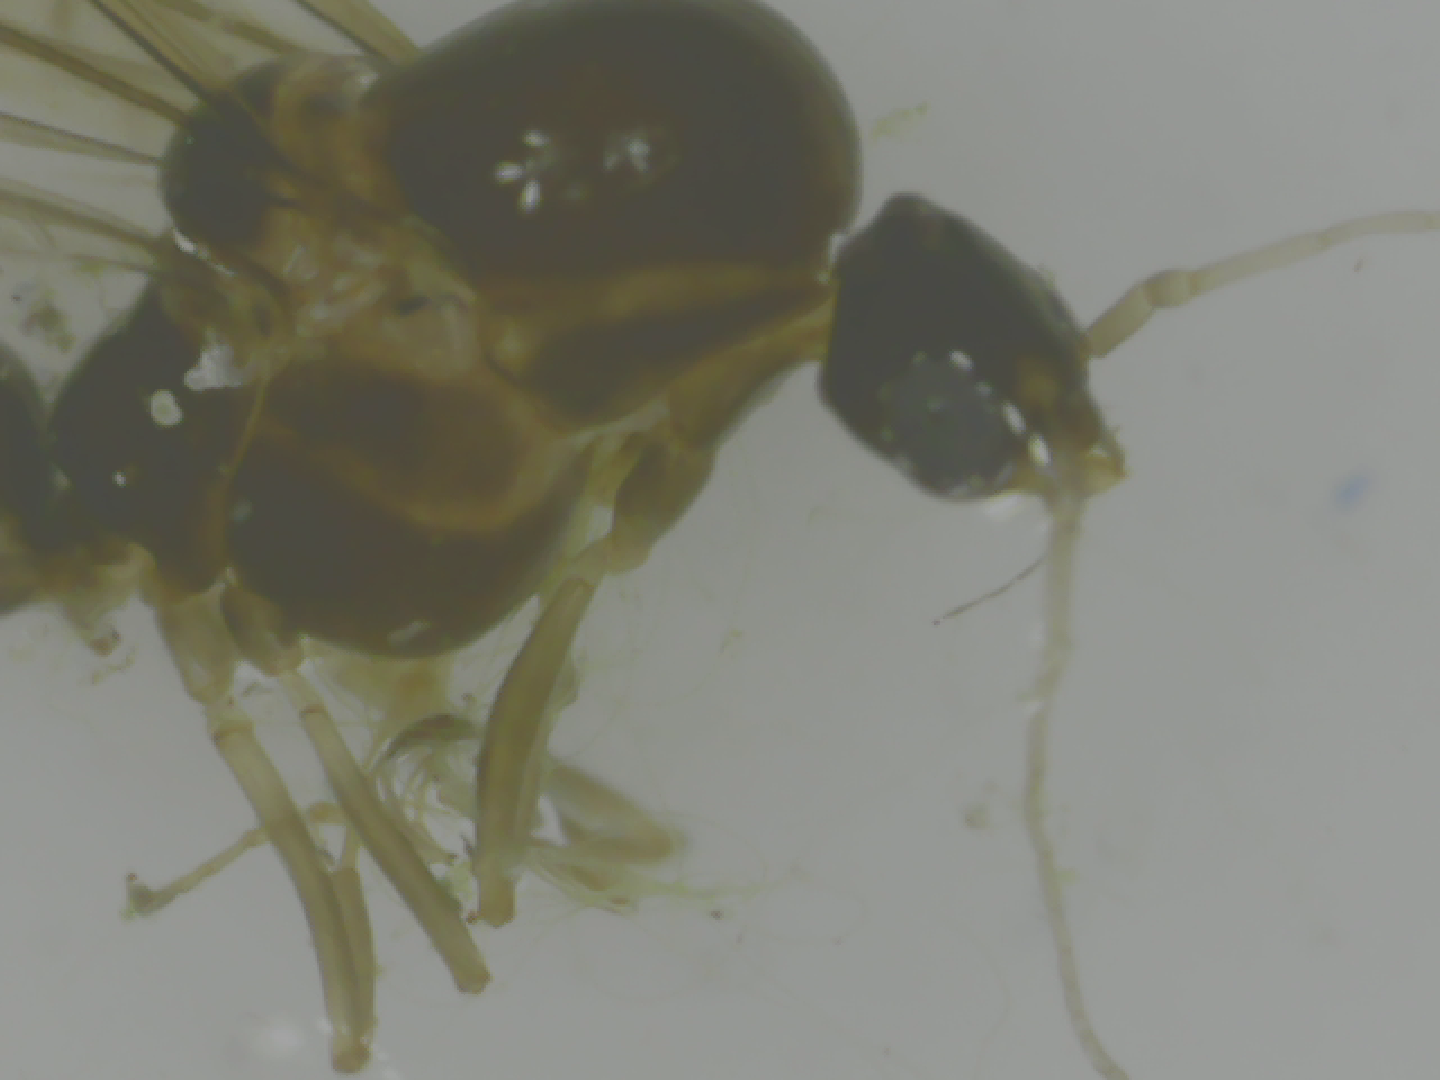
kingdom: Animalia
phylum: Arthropoda
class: Insecta
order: Hymenoptera
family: Formicidae
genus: Linepithema
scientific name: Linepithema humile
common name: Argentine ant
